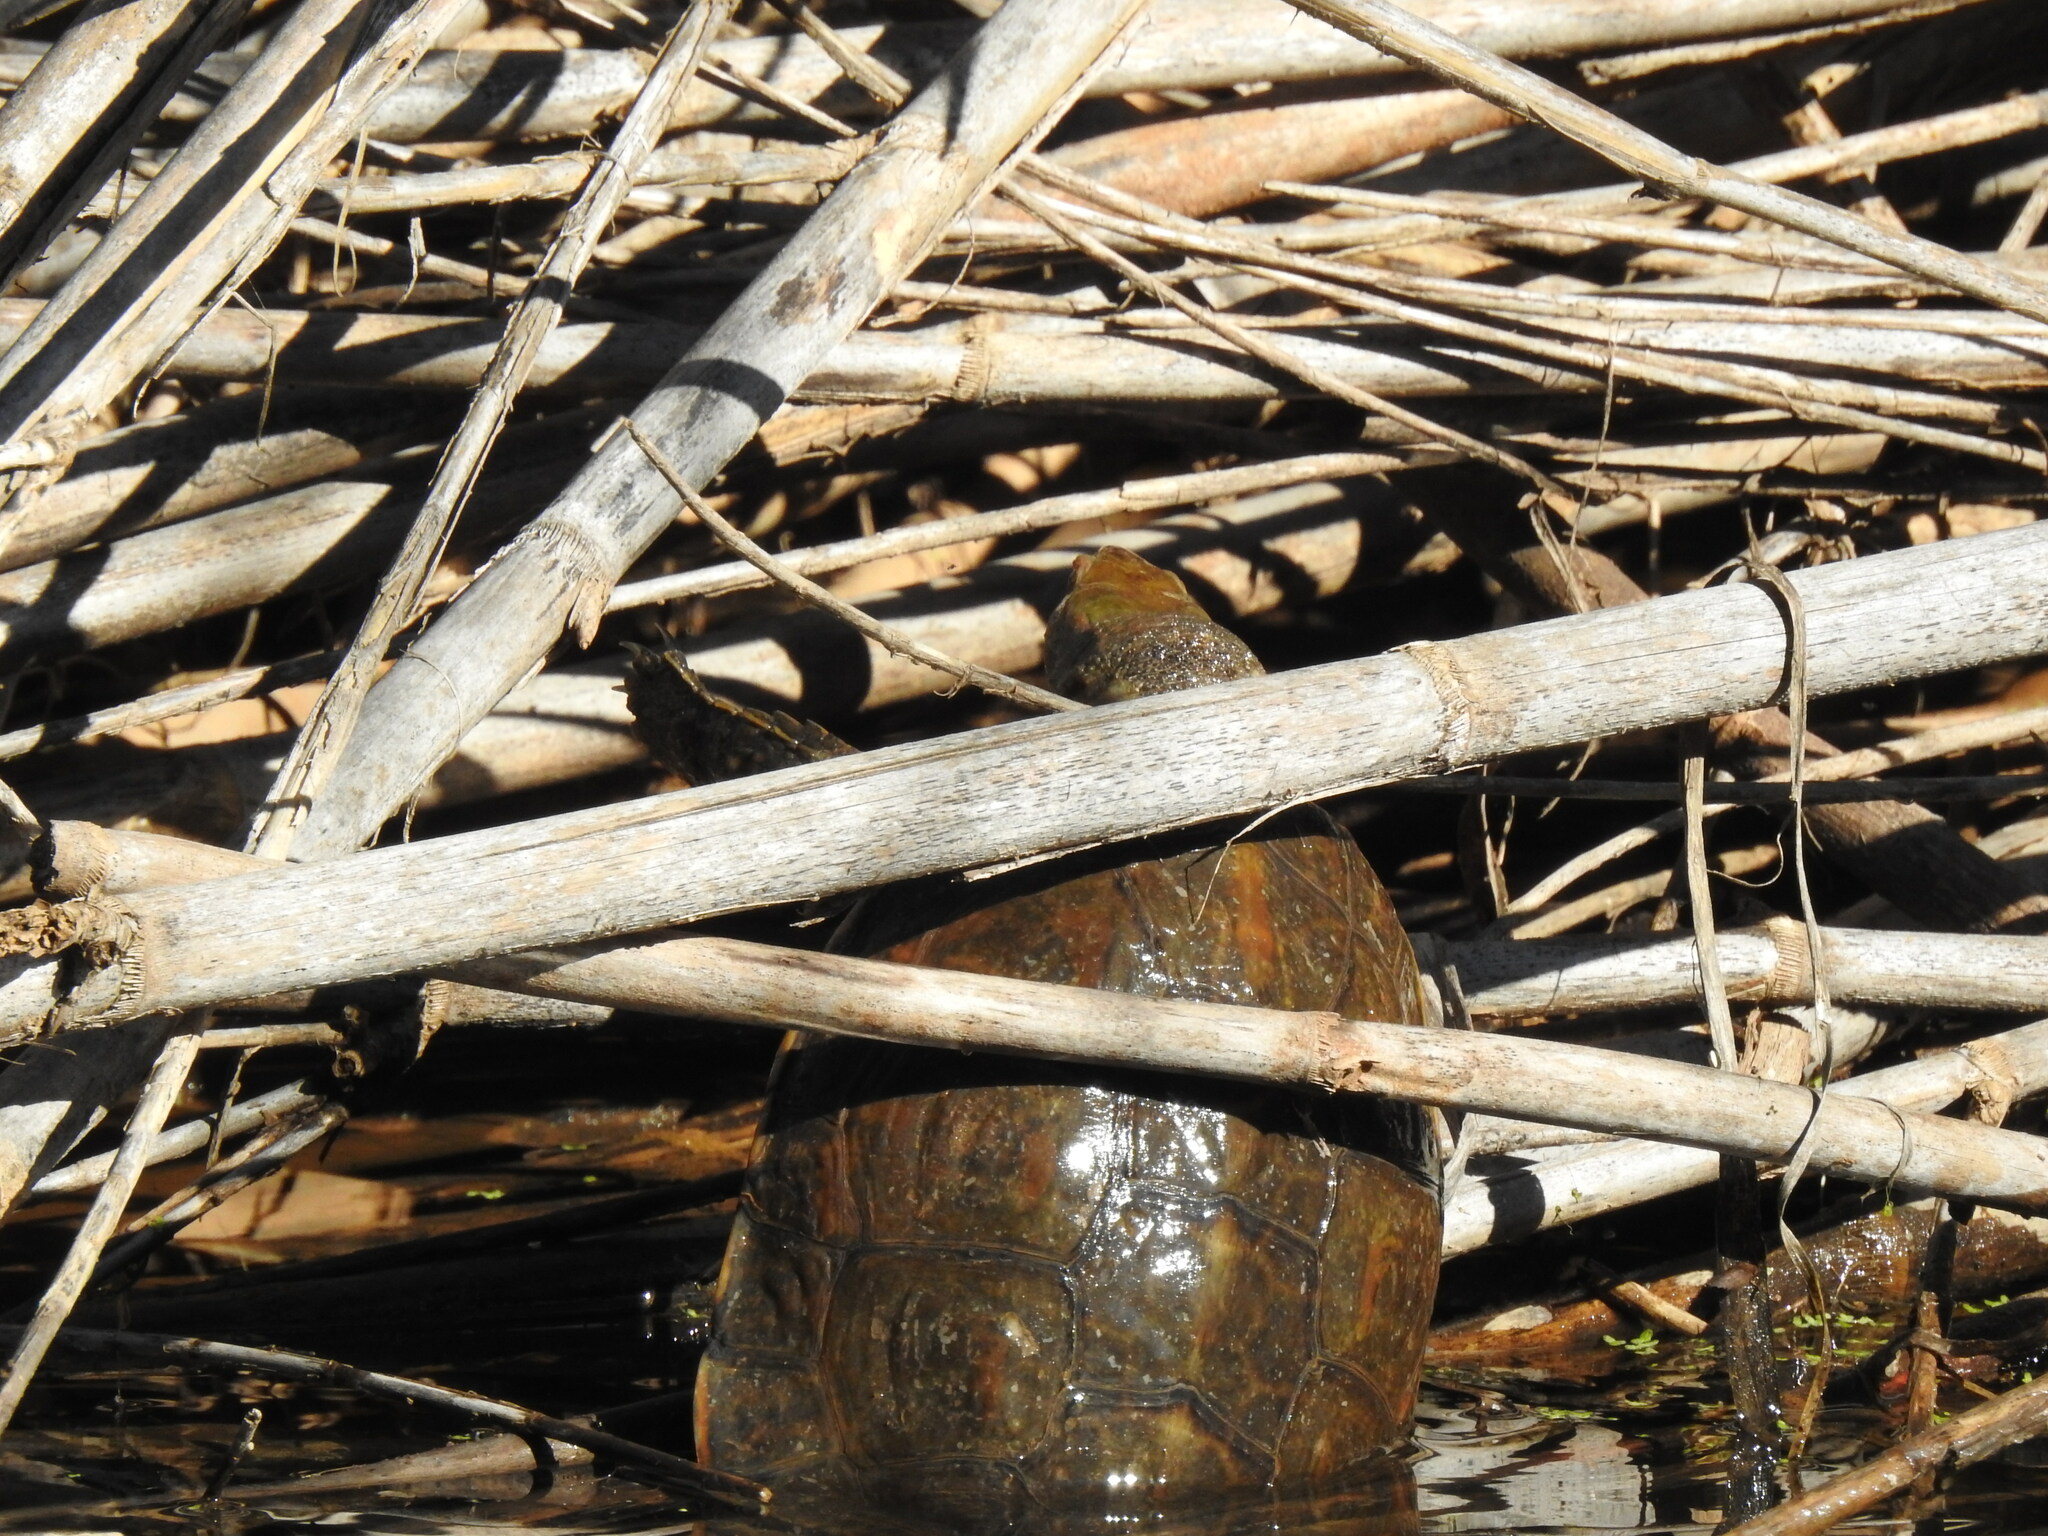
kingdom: Animalia
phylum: Chordata
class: Testudines
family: Geoemydidae
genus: Mauremys
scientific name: Mauremys leprosa
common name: Mediterranean pond turtle
